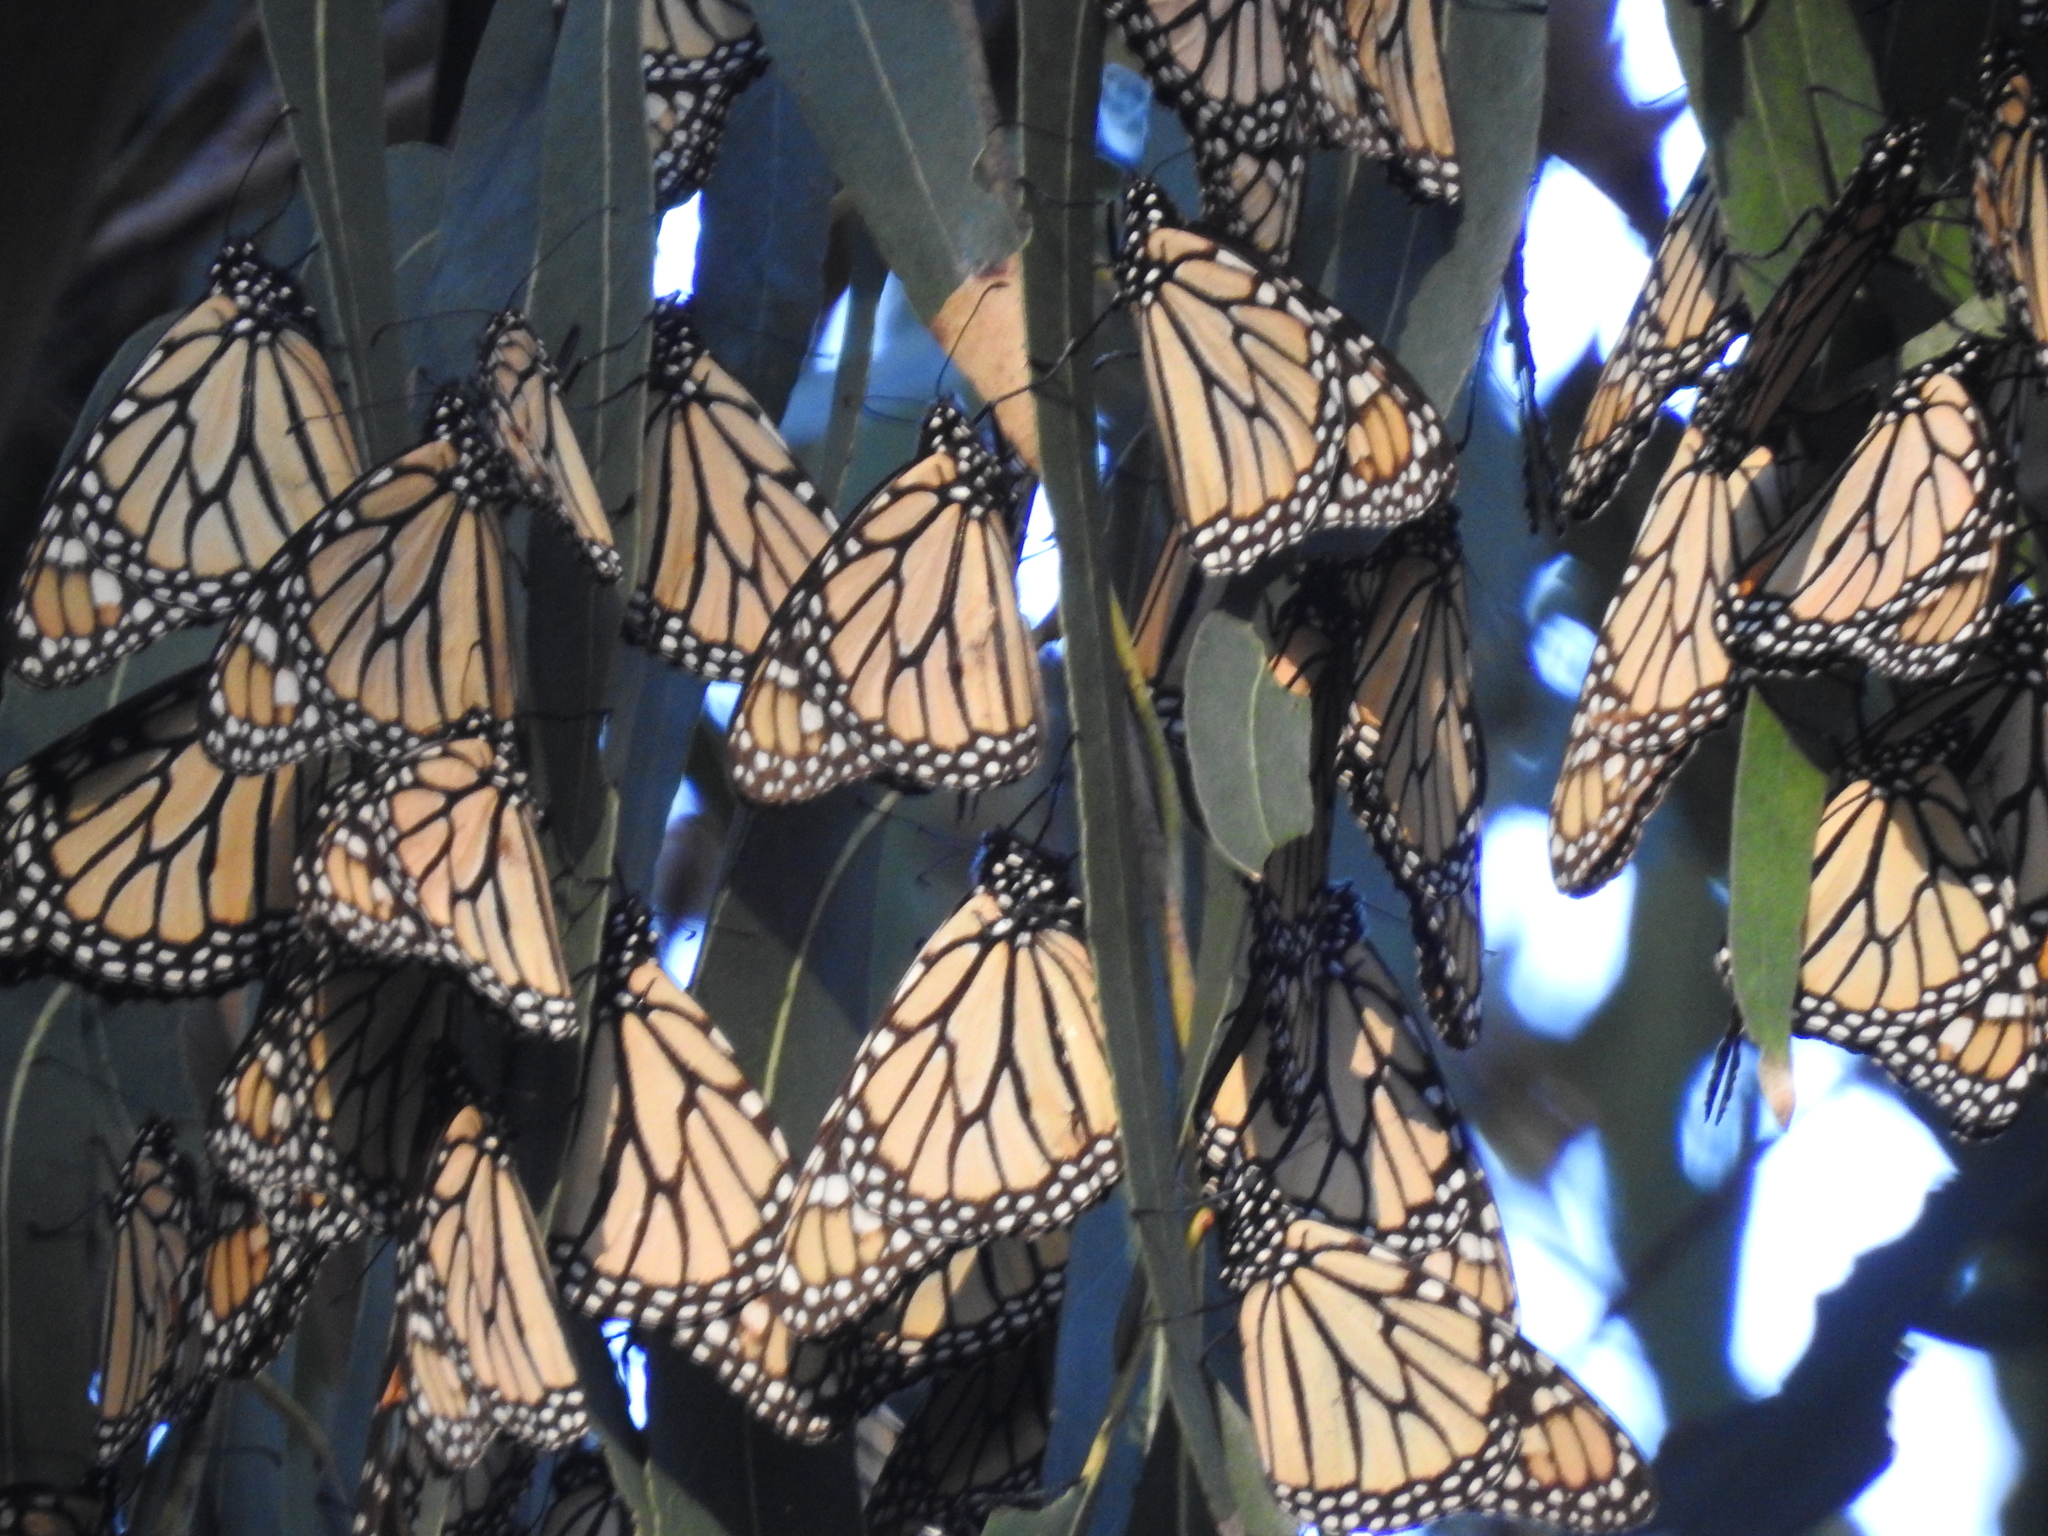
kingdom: Animalia
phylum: Arthropoda
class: Insecta
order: Lepidoptera
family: Nymphalidae
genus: Danaus
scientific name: Danaus plexippus
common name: Monarch
